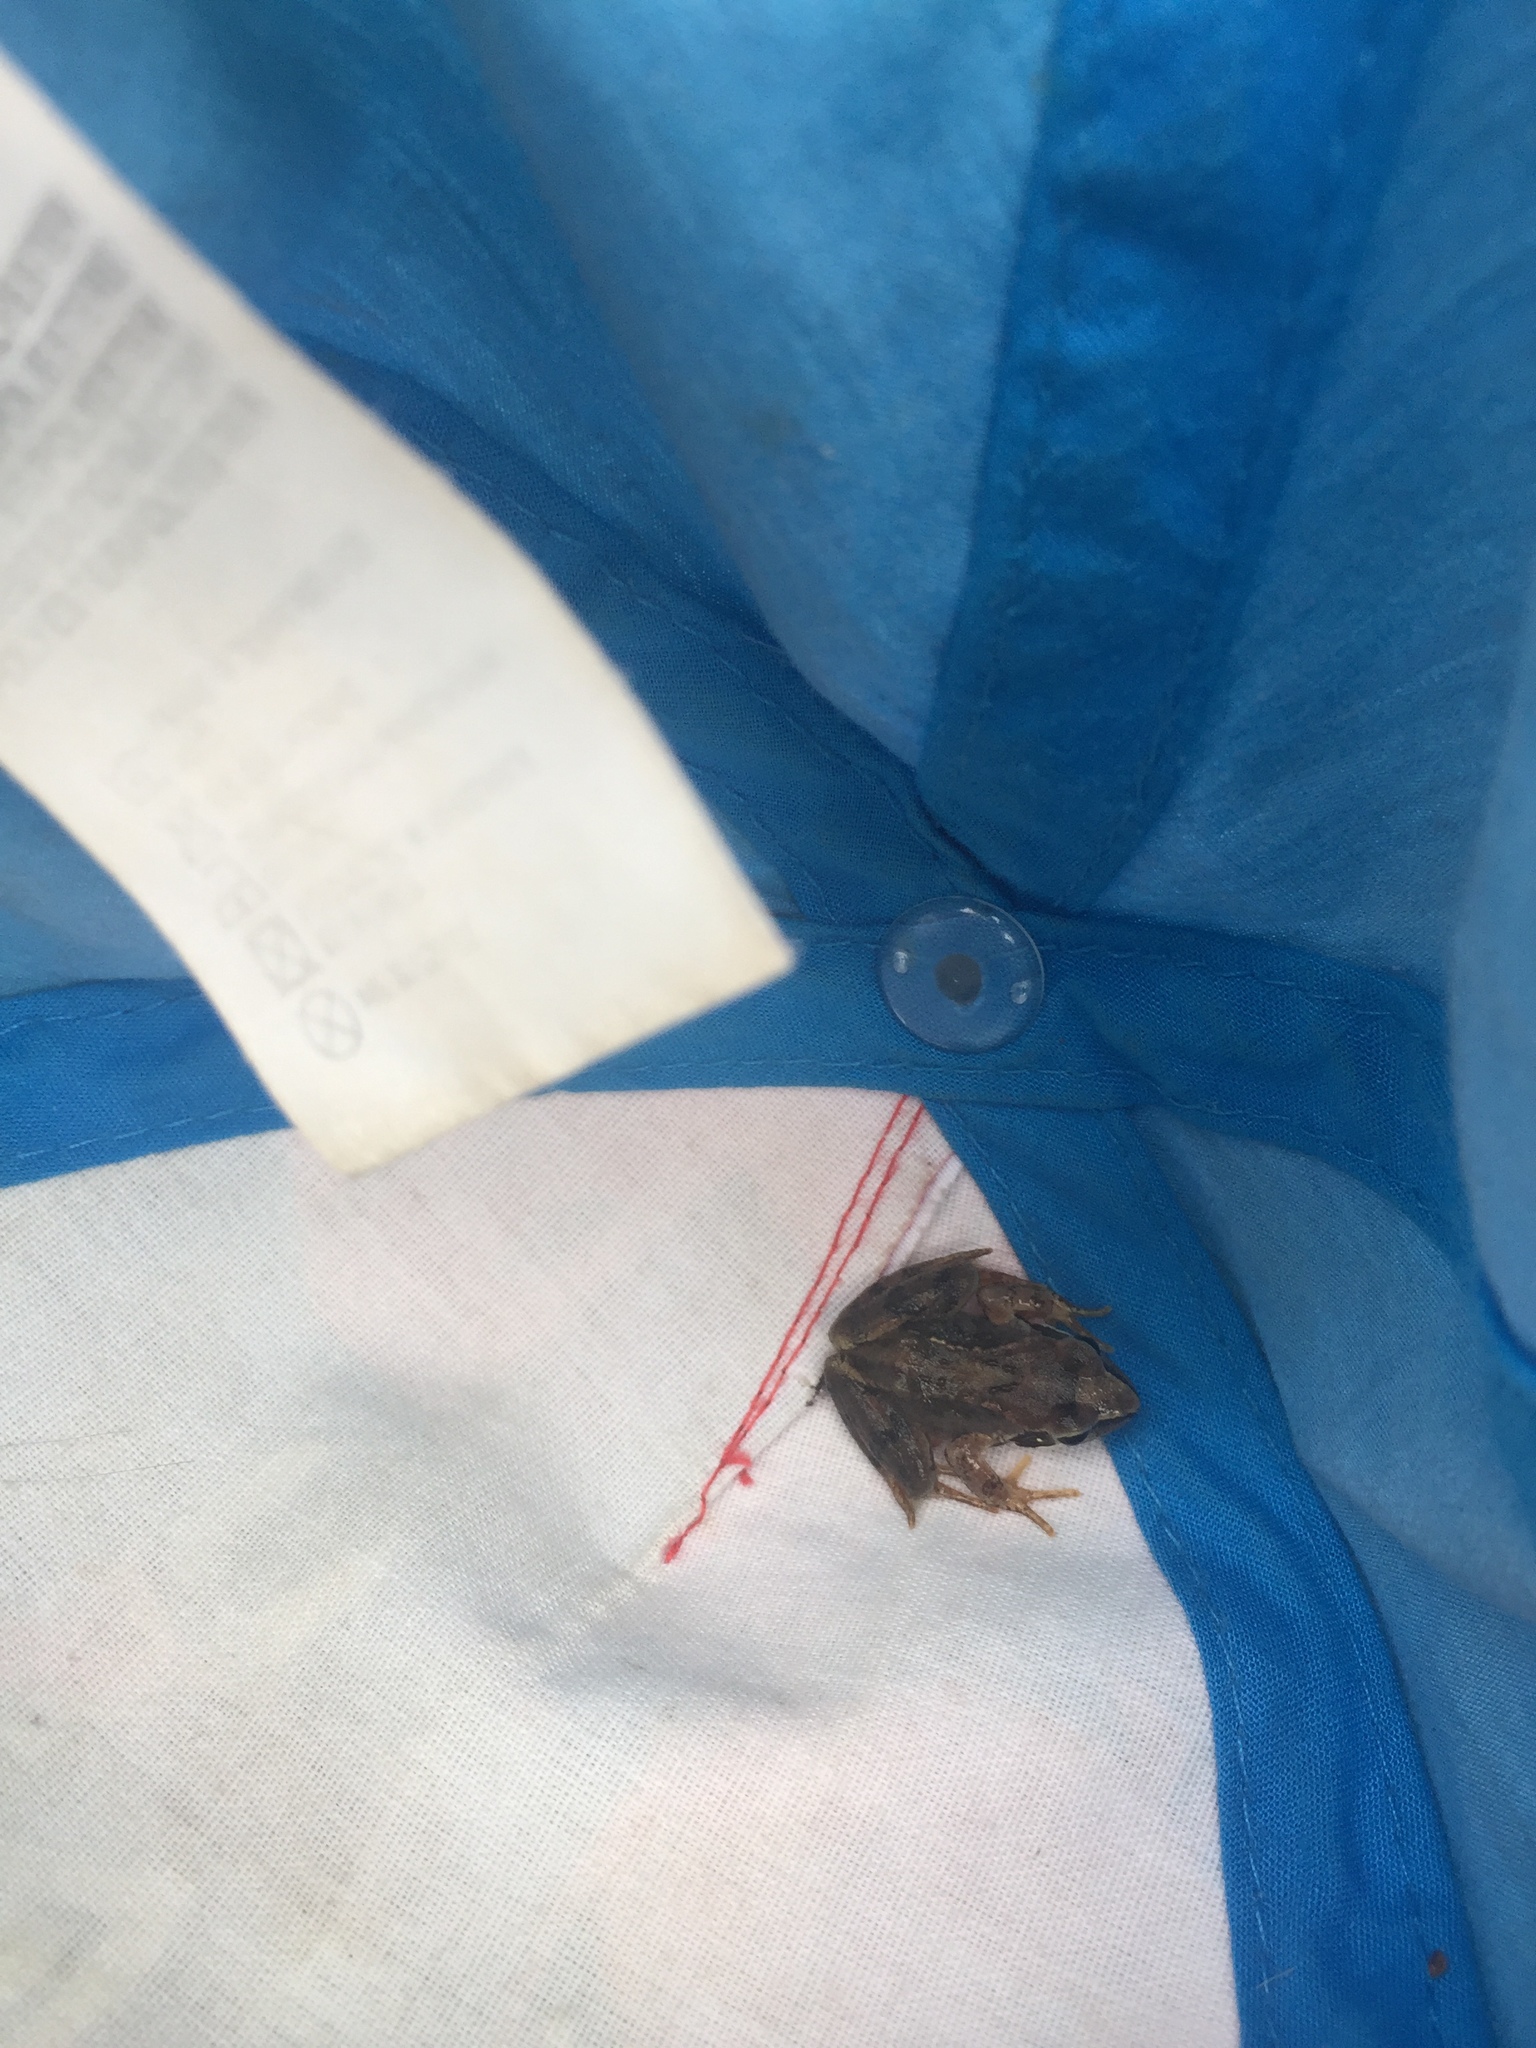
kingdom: Animalia
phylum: Chordata
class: Amphibia
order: Anura
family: Ranidae
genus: Rana
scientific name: Rana temporaria
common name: Common frog
